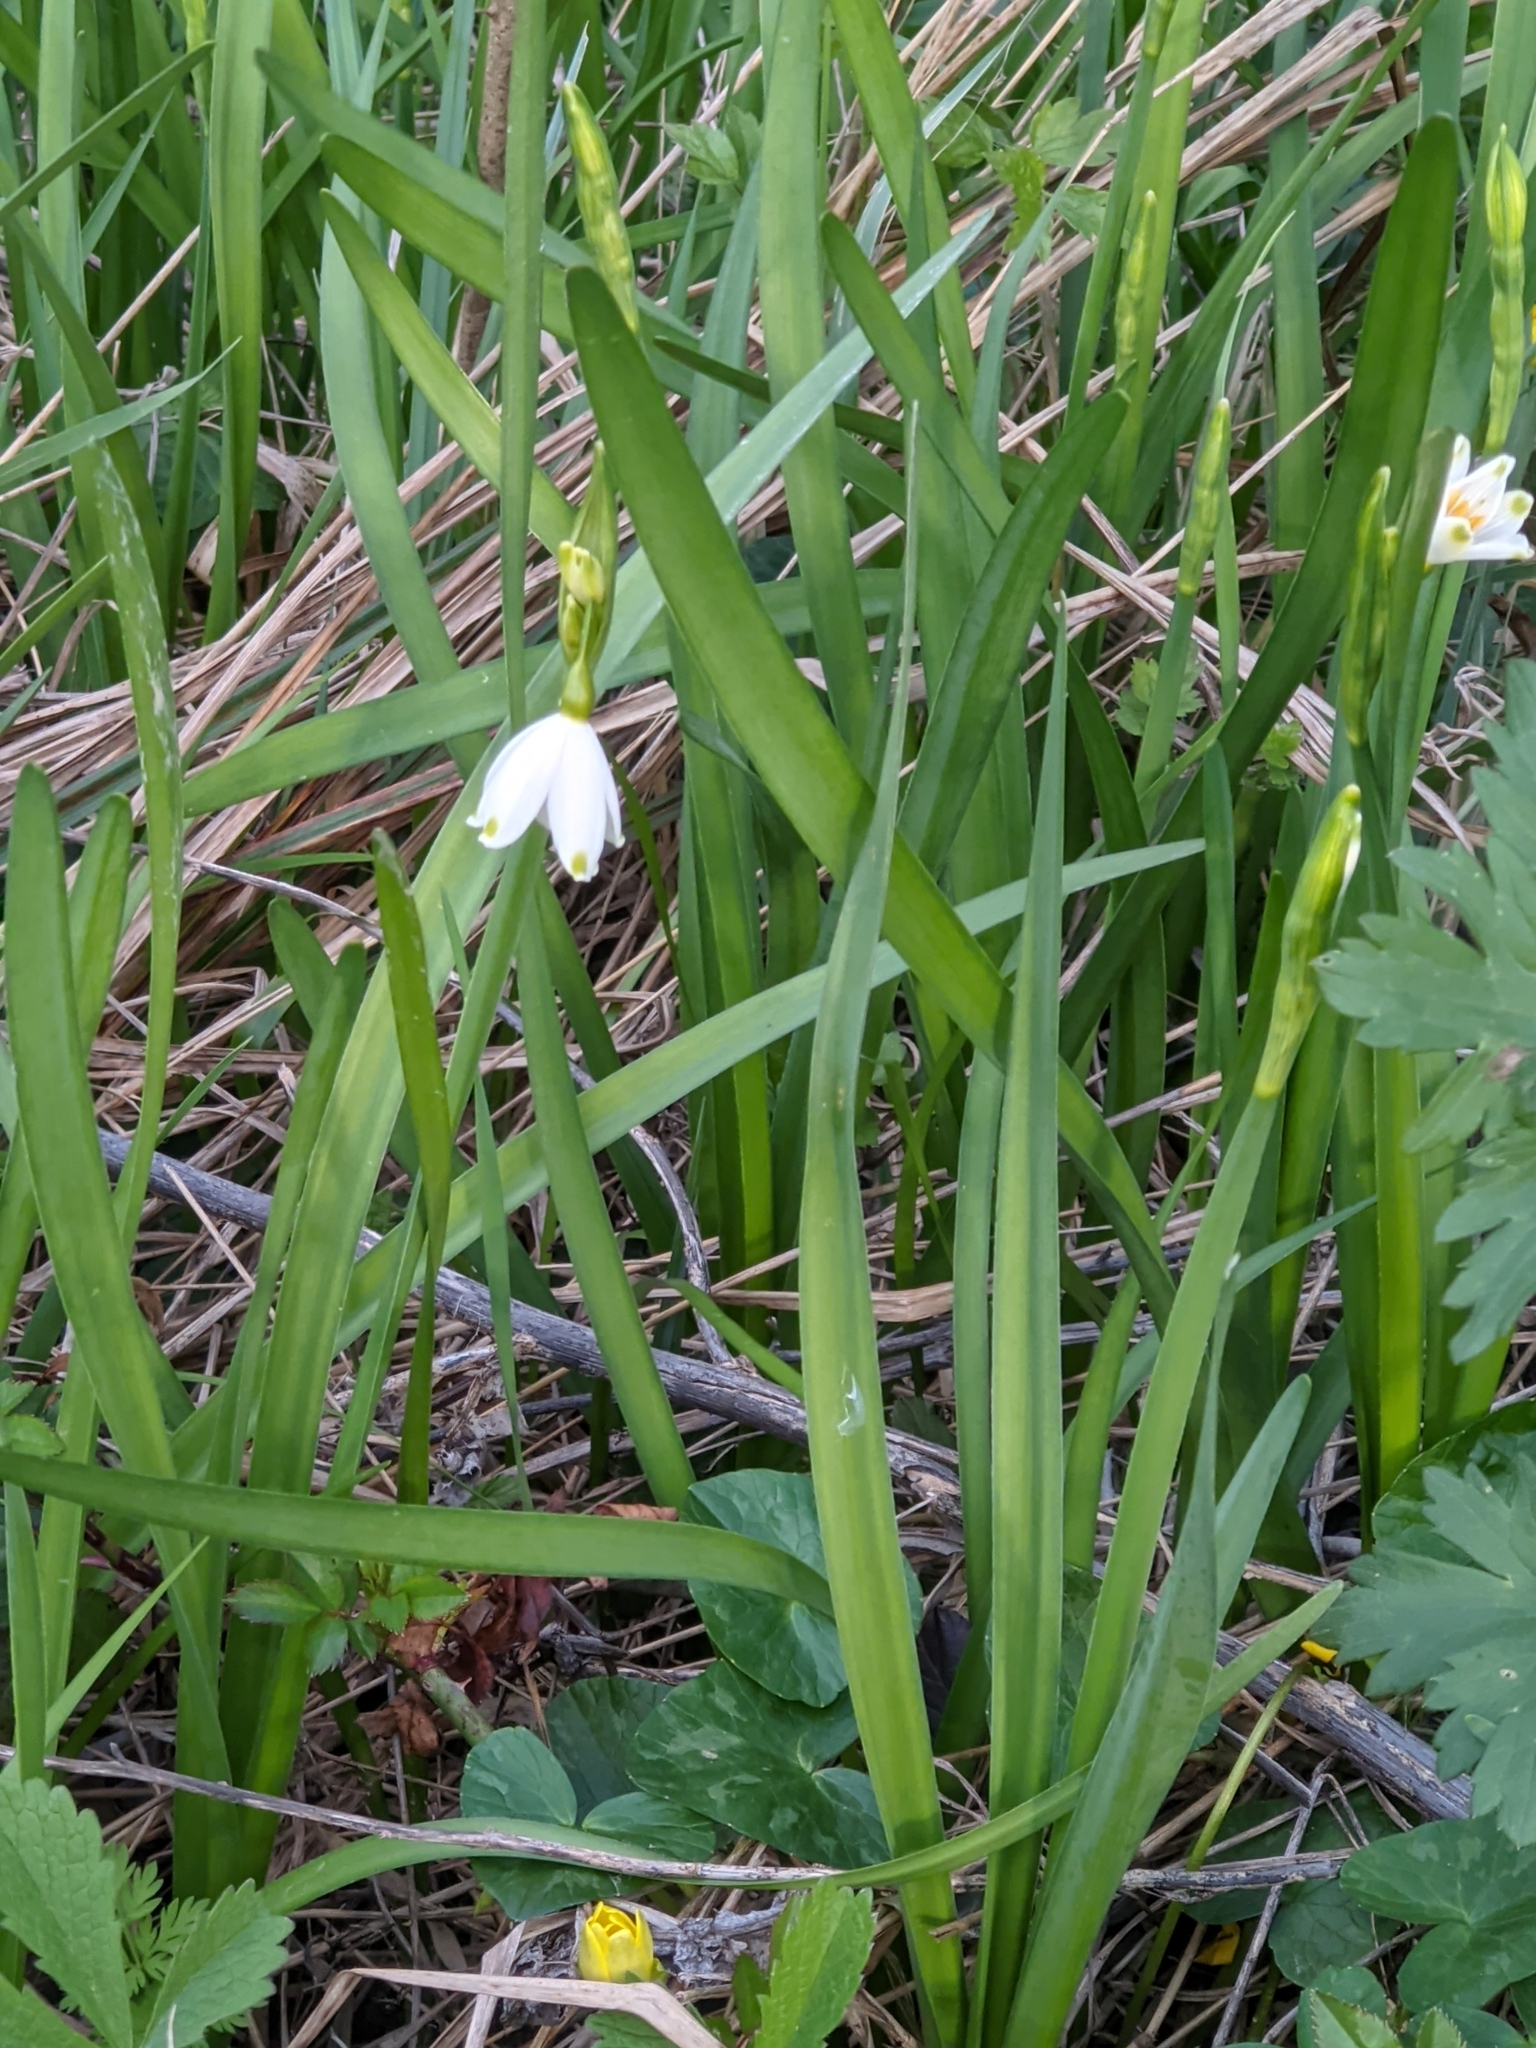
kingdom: Plantae
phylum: Tracheophyta
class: Liliopsida
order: Asparagales
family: Amaryllidaceae
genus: Leucojum
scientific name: Leucojum aestivum
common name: Summer snowflake
